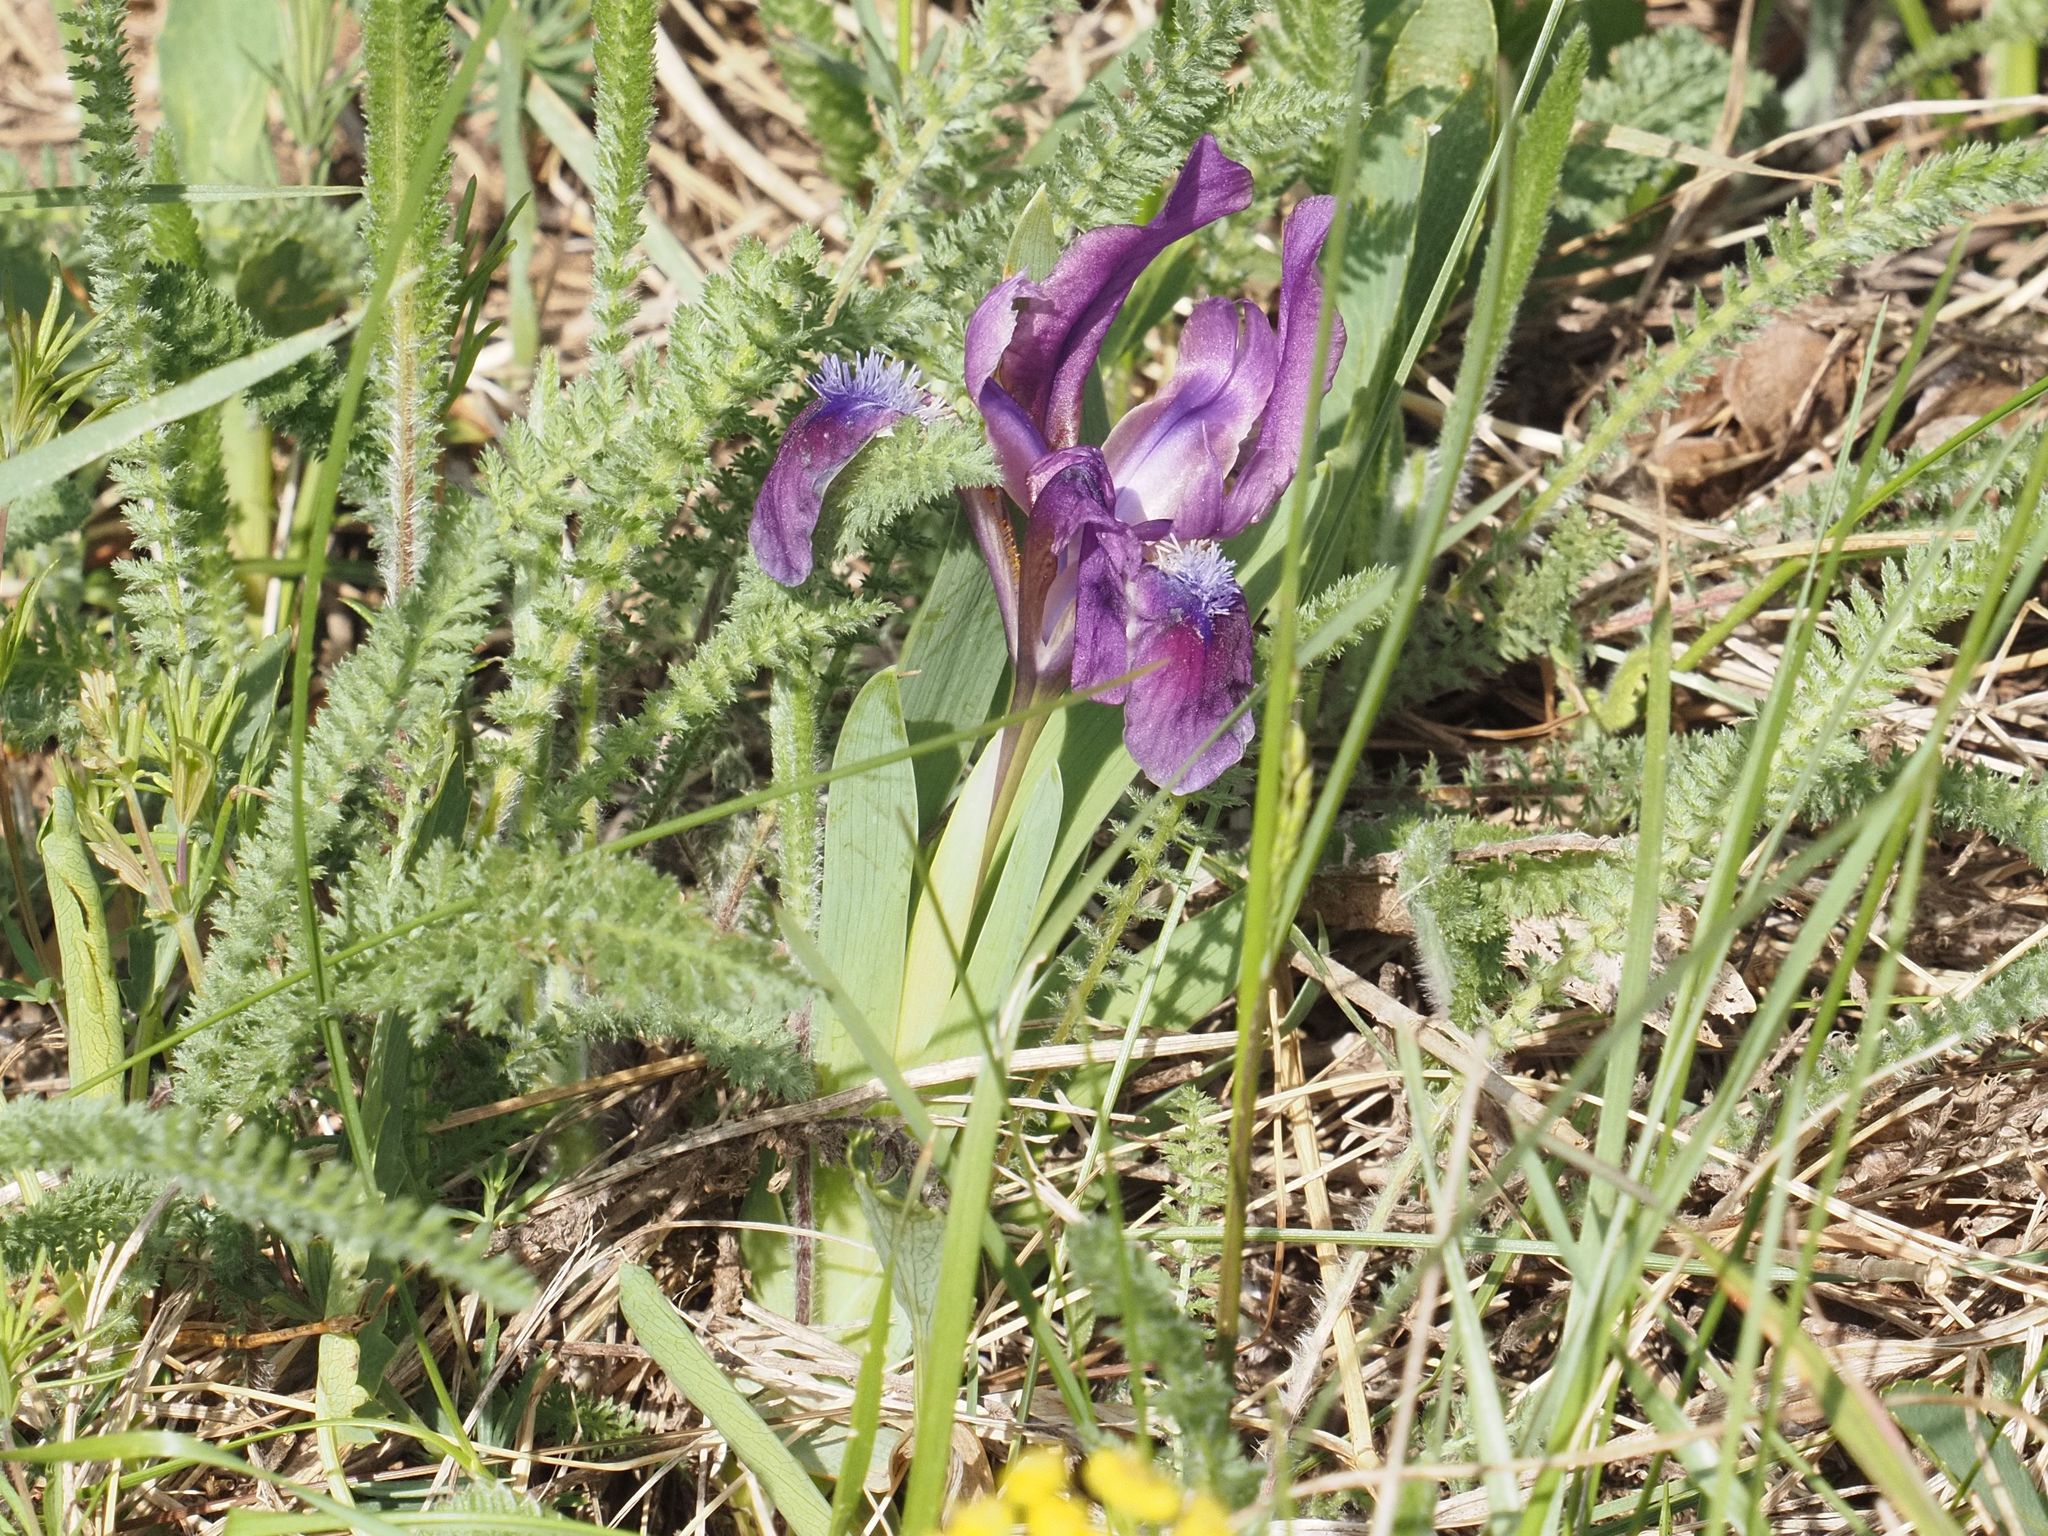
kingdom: Plantae
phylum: Tracheophyta
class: Liliopsida
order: Asparagales
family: Iridaceae
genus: Iris
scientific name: Iris pumila
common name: Dwarf iris
